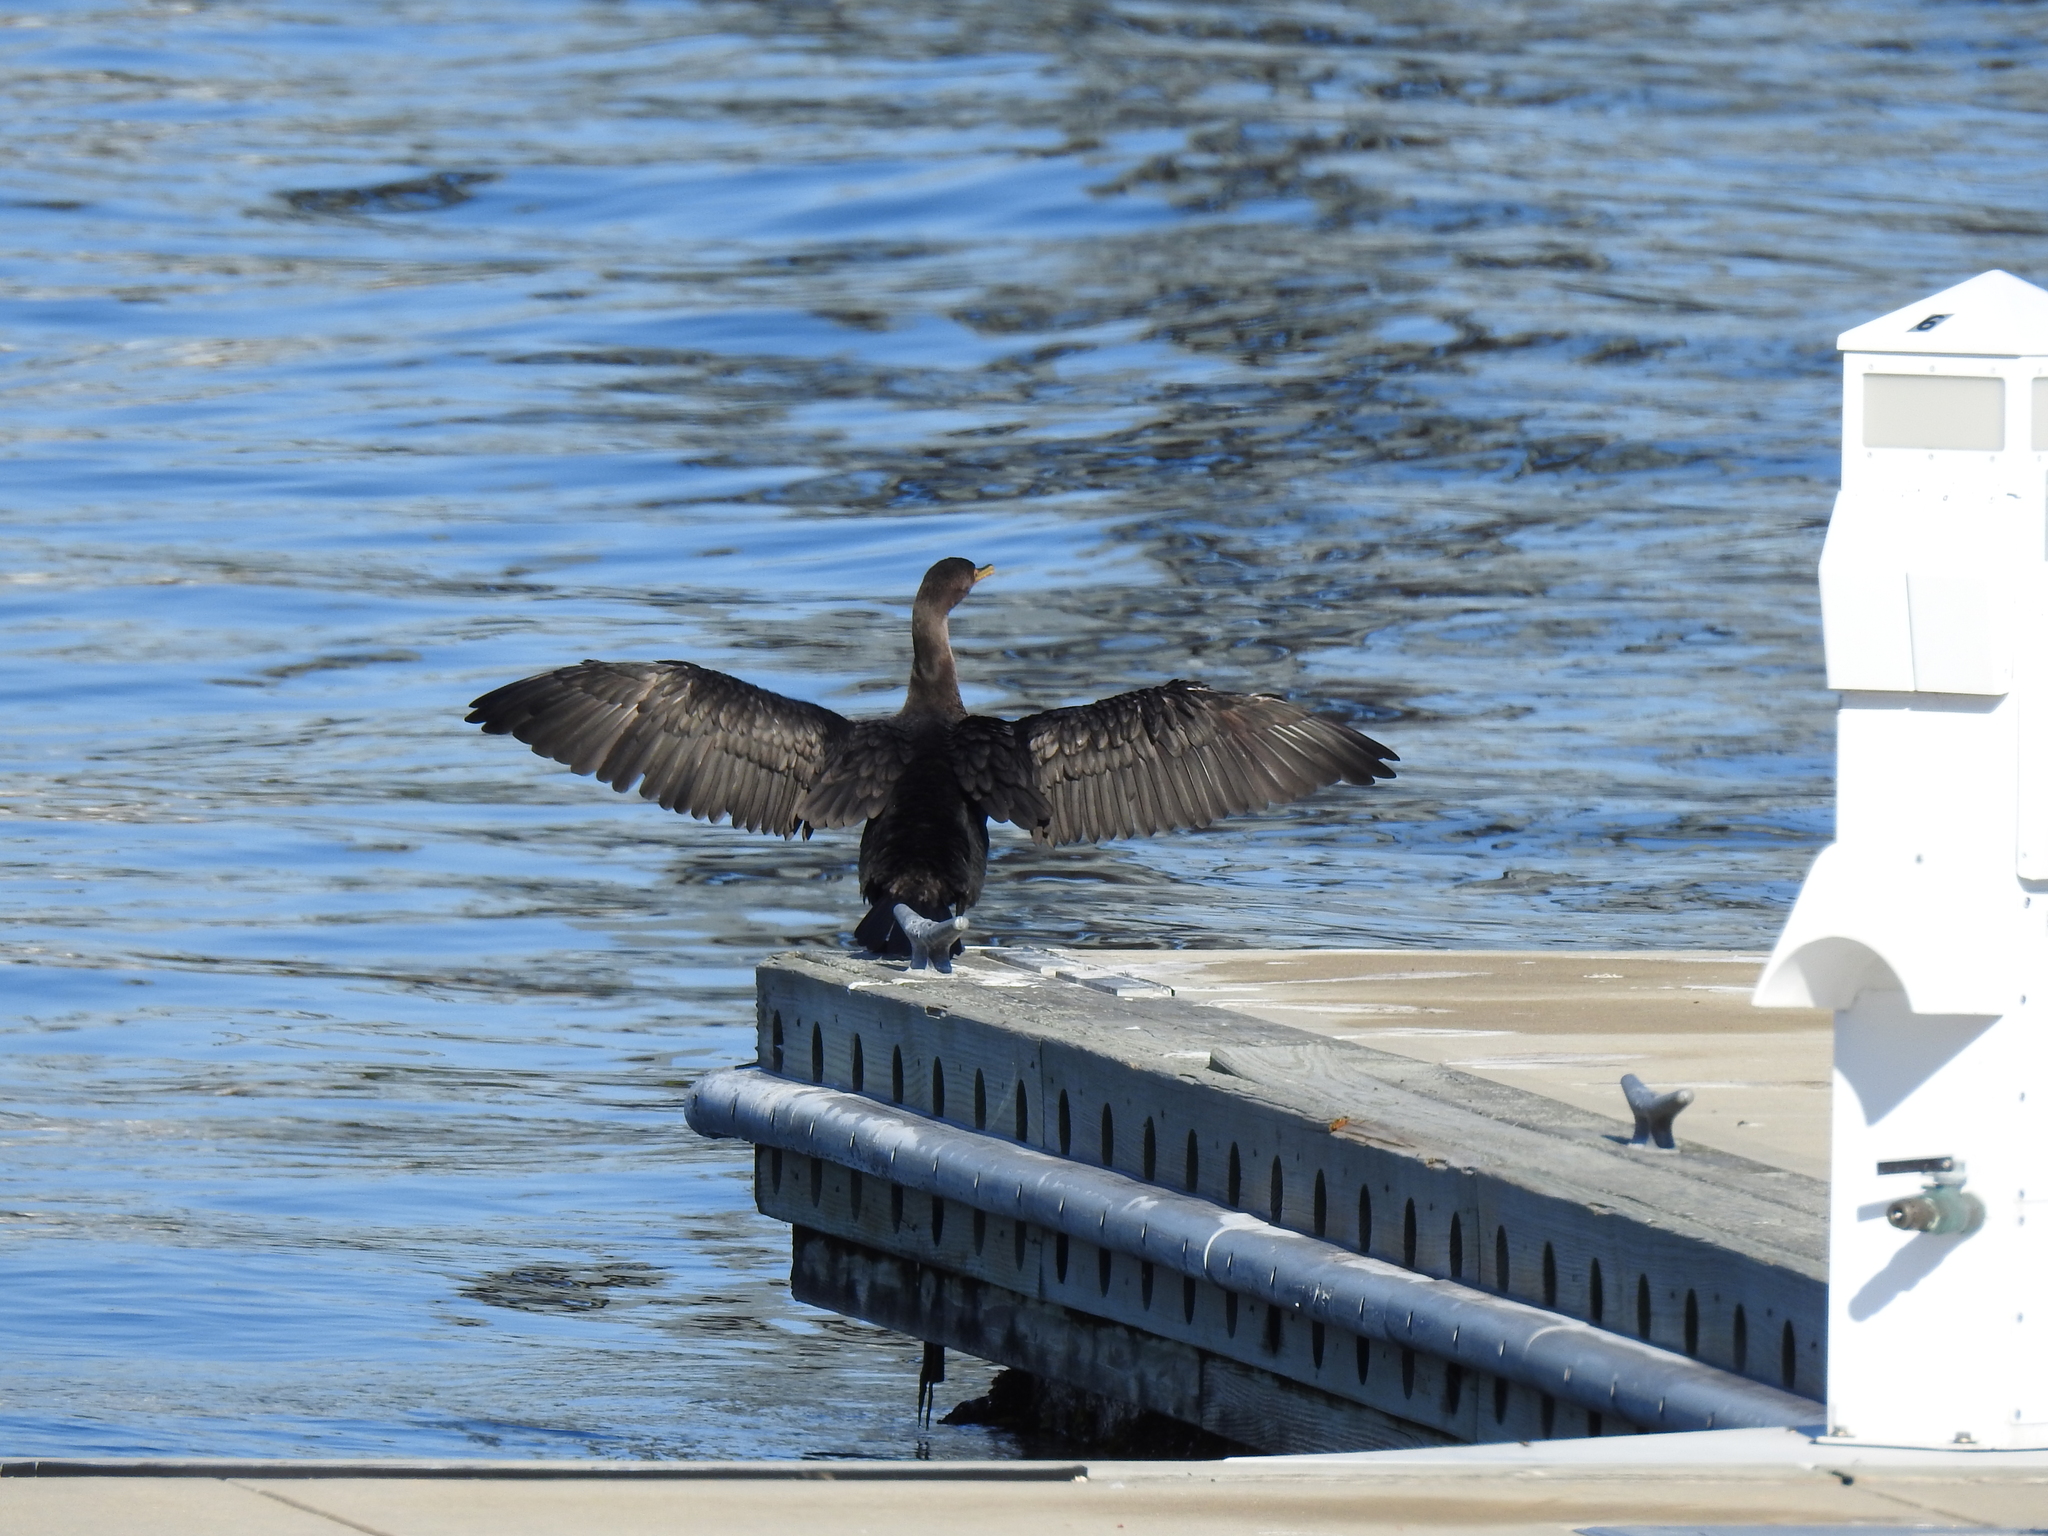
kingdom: Animalia
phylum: Chordata
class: Aves
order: Suliformes
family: Phalacrocoracidae
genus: Phalacrocorax
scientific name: Phalacrocorax auritus
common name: Double-crested cormorant
